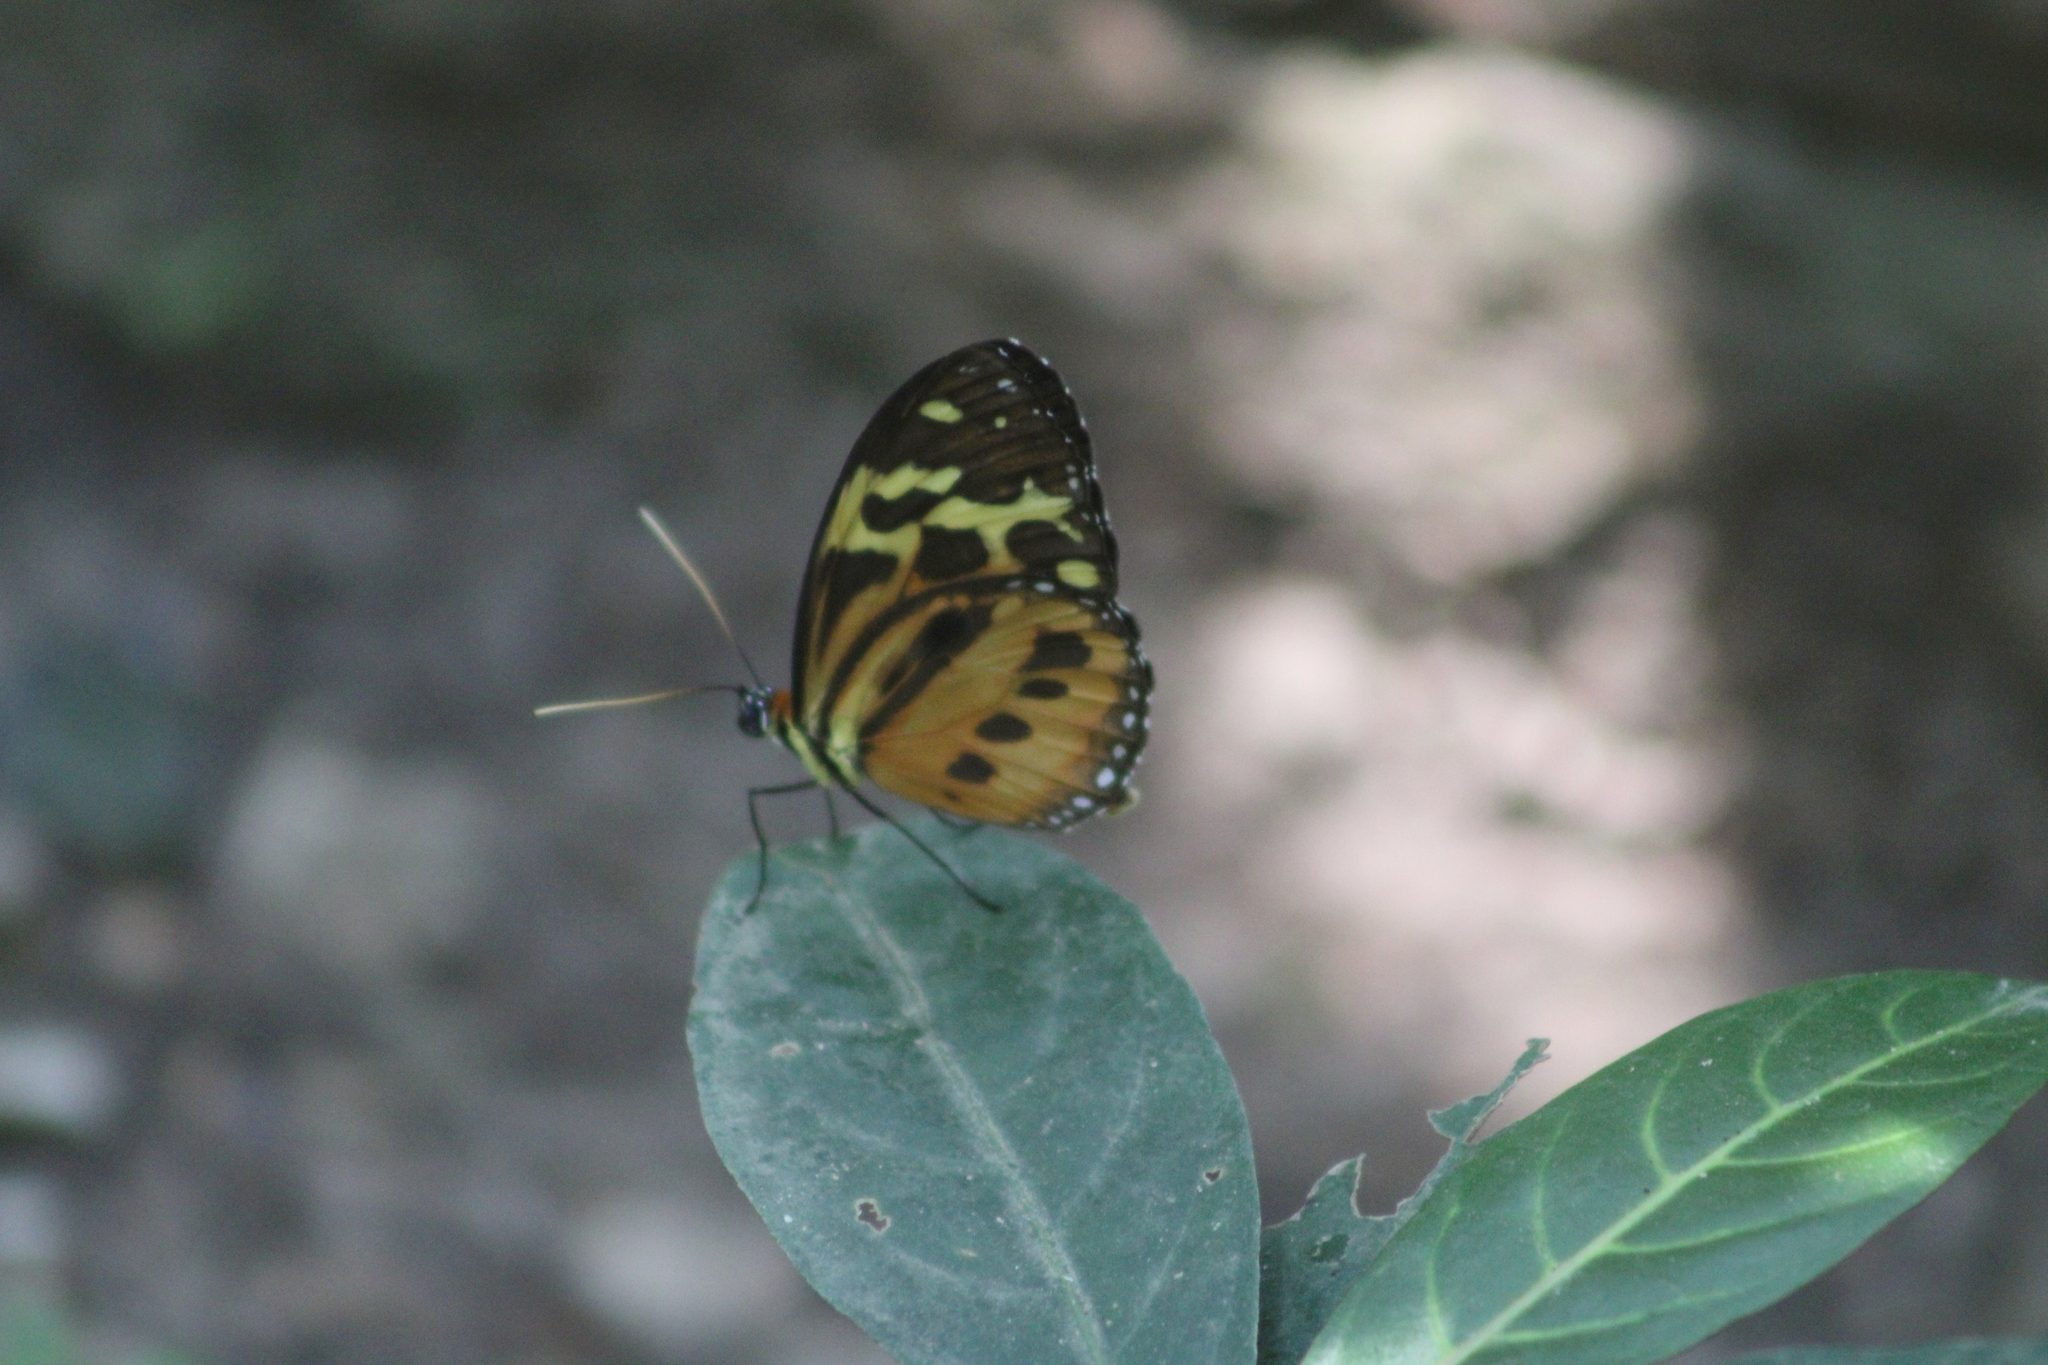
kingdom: Animalia
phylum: Arthropoda
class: Insecta
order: Lepidoptera
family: Nymphalidae
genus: Tithorea
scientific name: Tithorea harmonia
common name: Harmonia tigerwing
